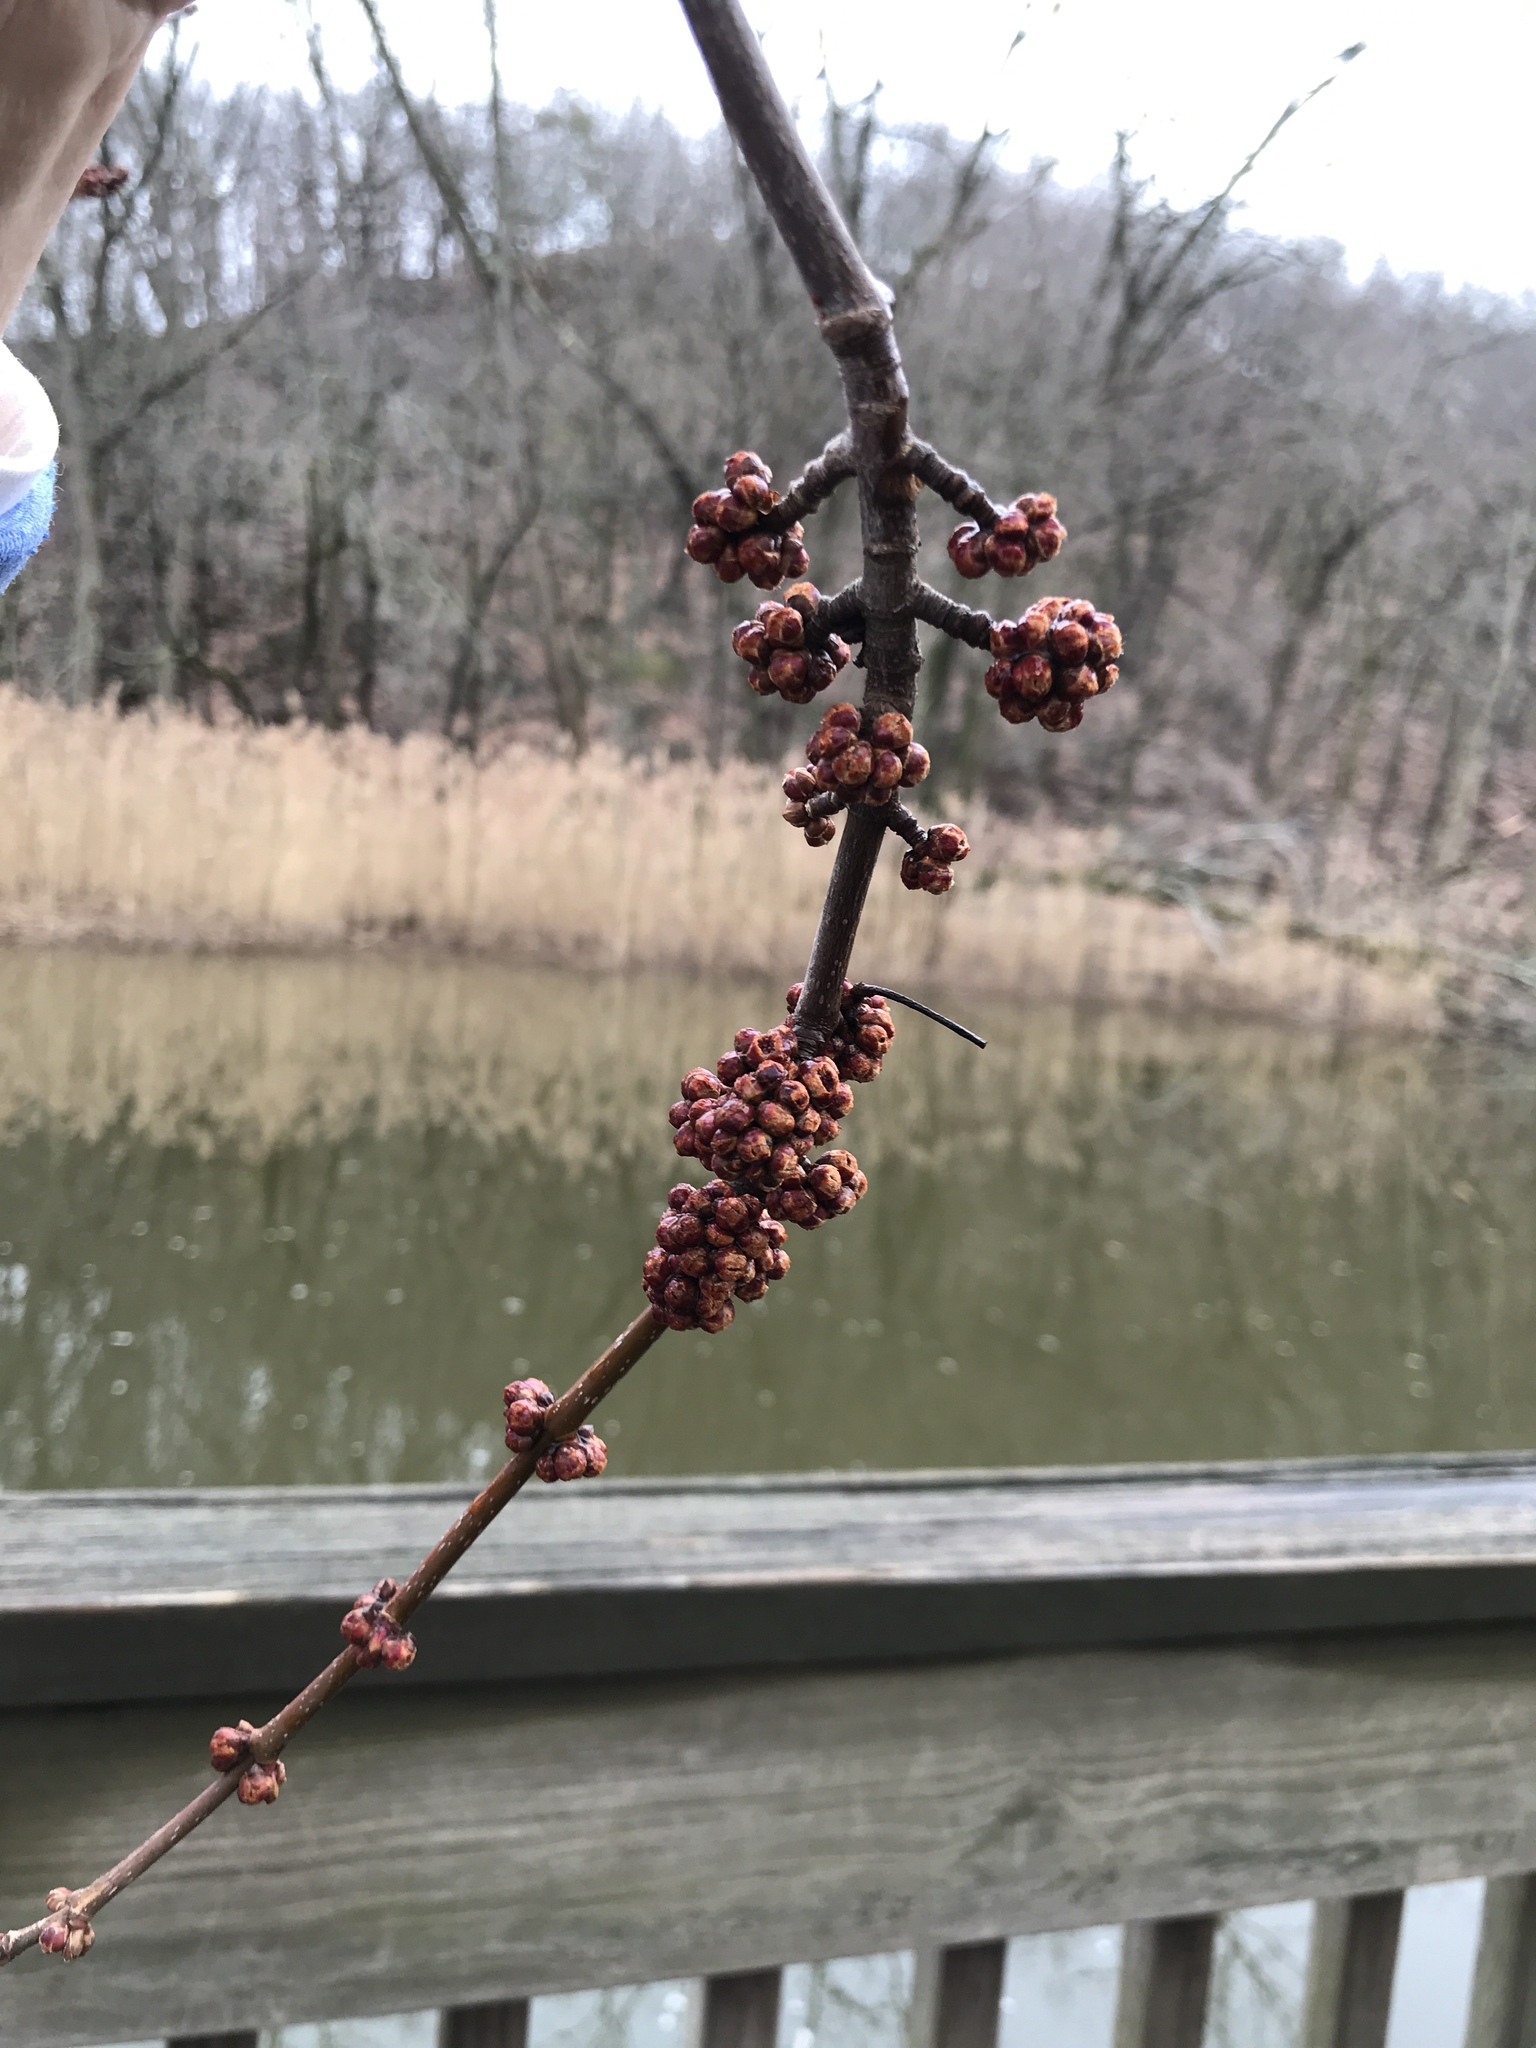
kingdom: Plantae
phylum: Tracheophyta
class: Magnoliopsida
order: Sapindales
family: Sapindaceae
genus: Acer
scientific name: Acer saccharinum
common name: Silver maple
